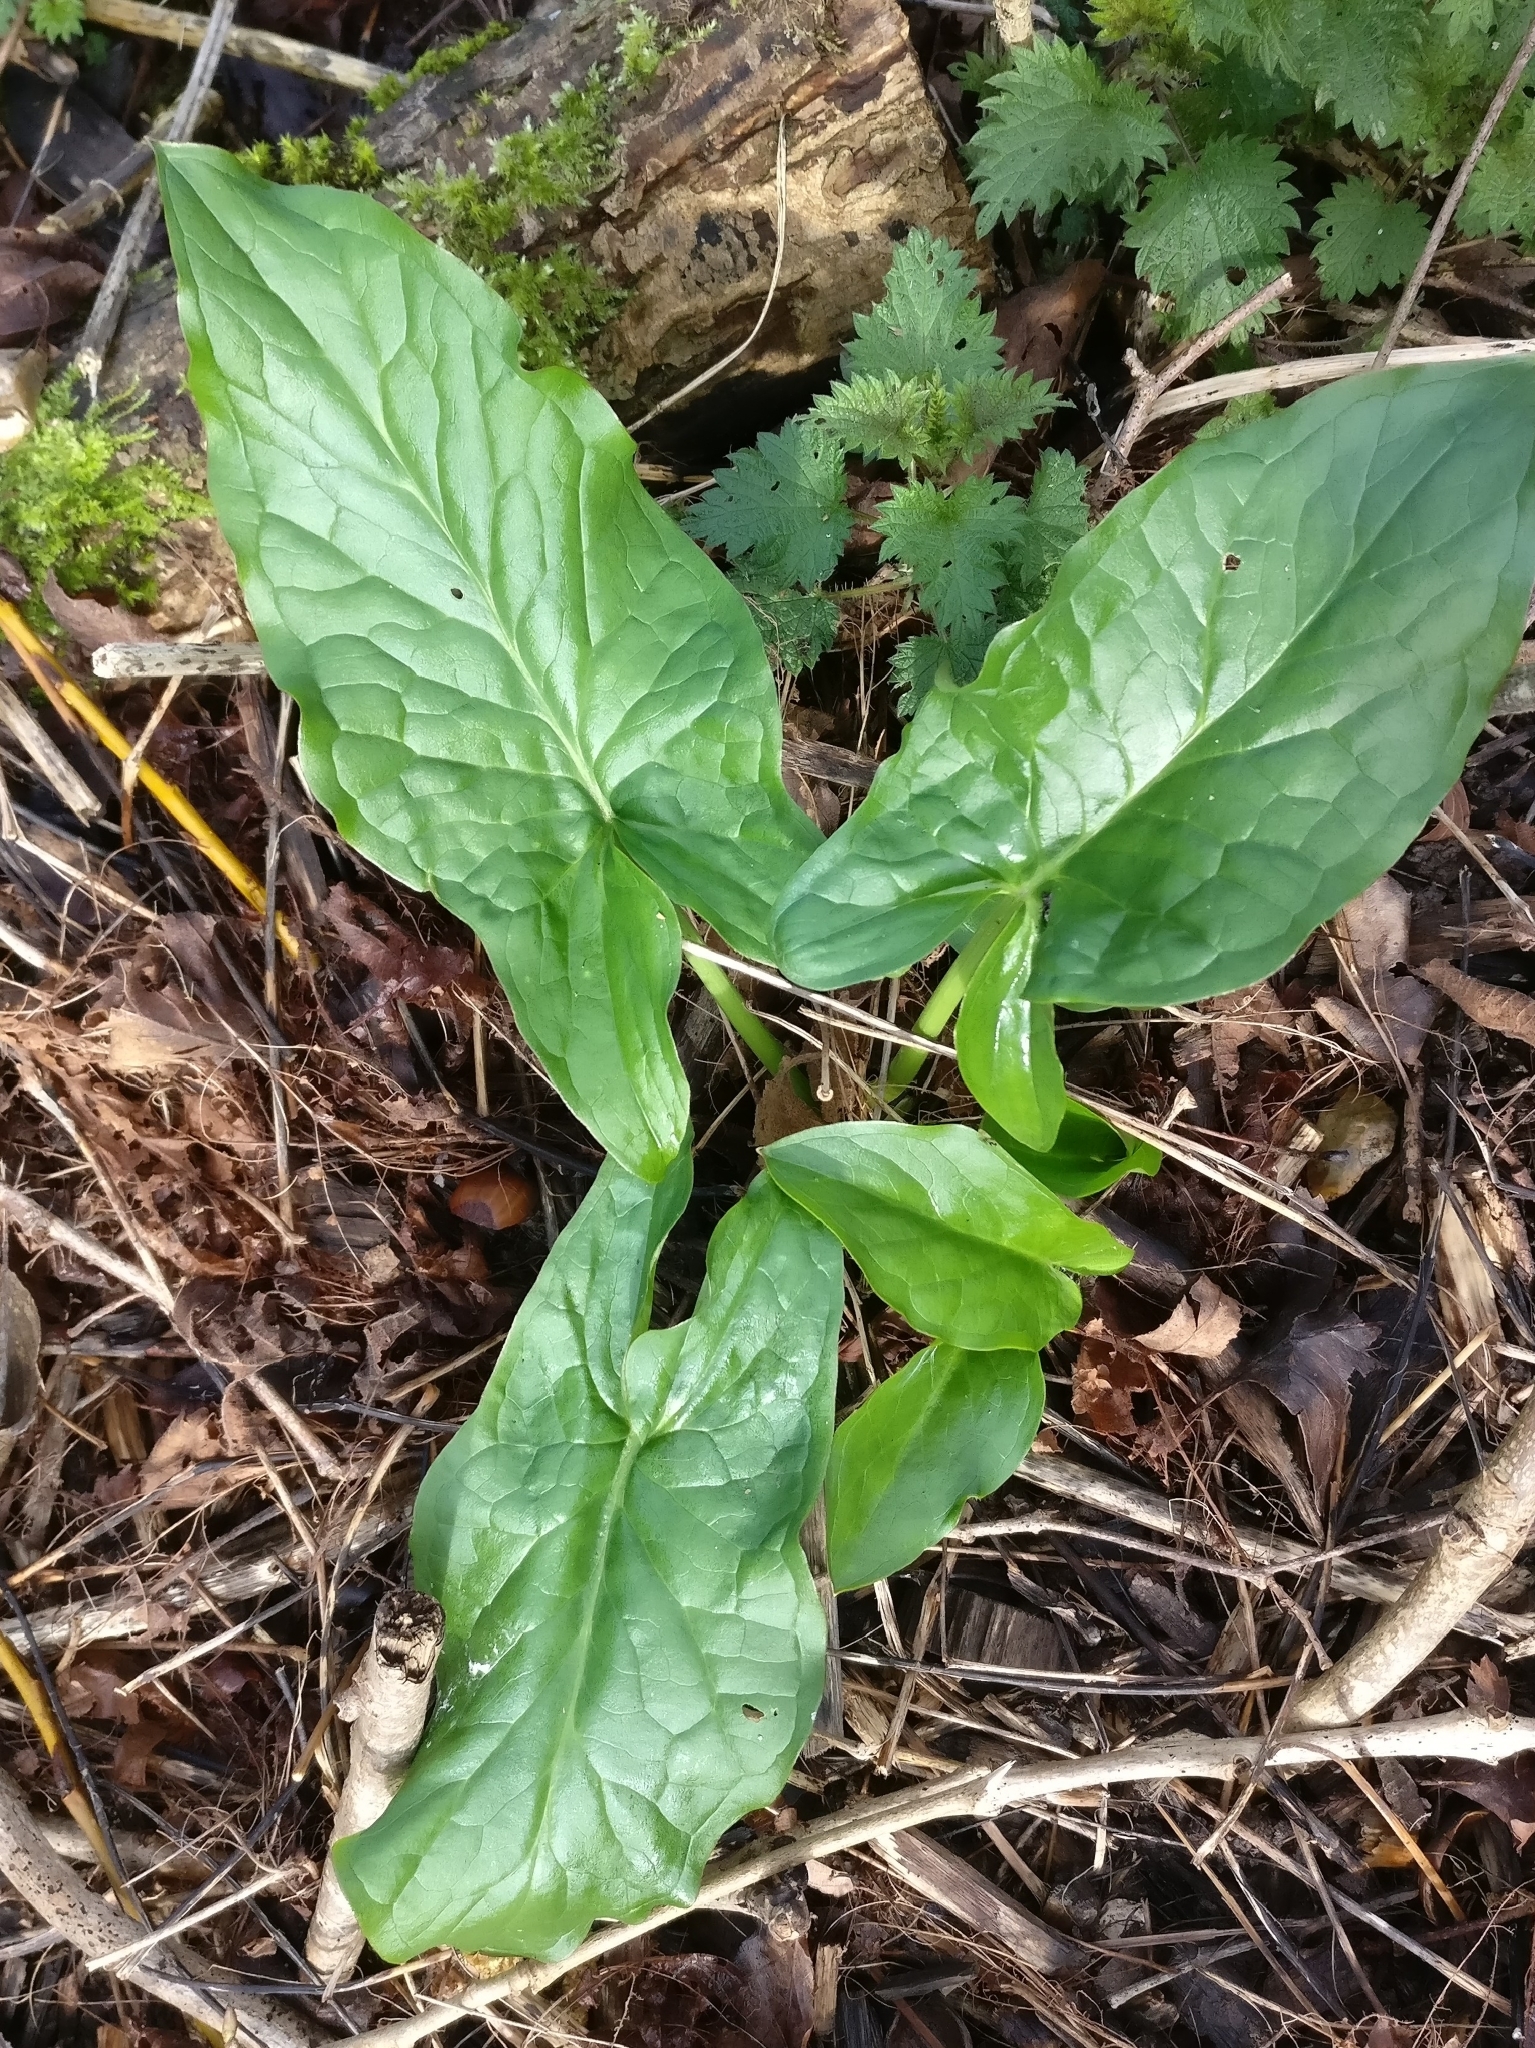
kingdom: Plantae
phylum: Tracheophyta
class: Liliopsida
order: Alismatales
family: Araceae
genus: Arum
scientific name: Arum maculatum
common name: Lords-and-ladies
